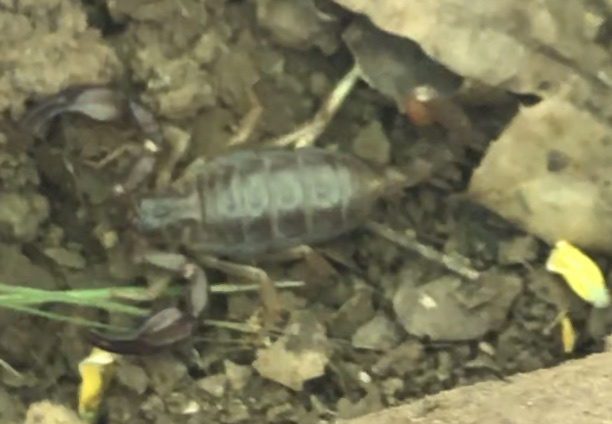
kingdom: Animalia
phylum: Arthropoda
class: Arachnida
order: Scorpiones
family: Chactidae
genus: Uroctonus
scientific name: Uroctonus mordax
